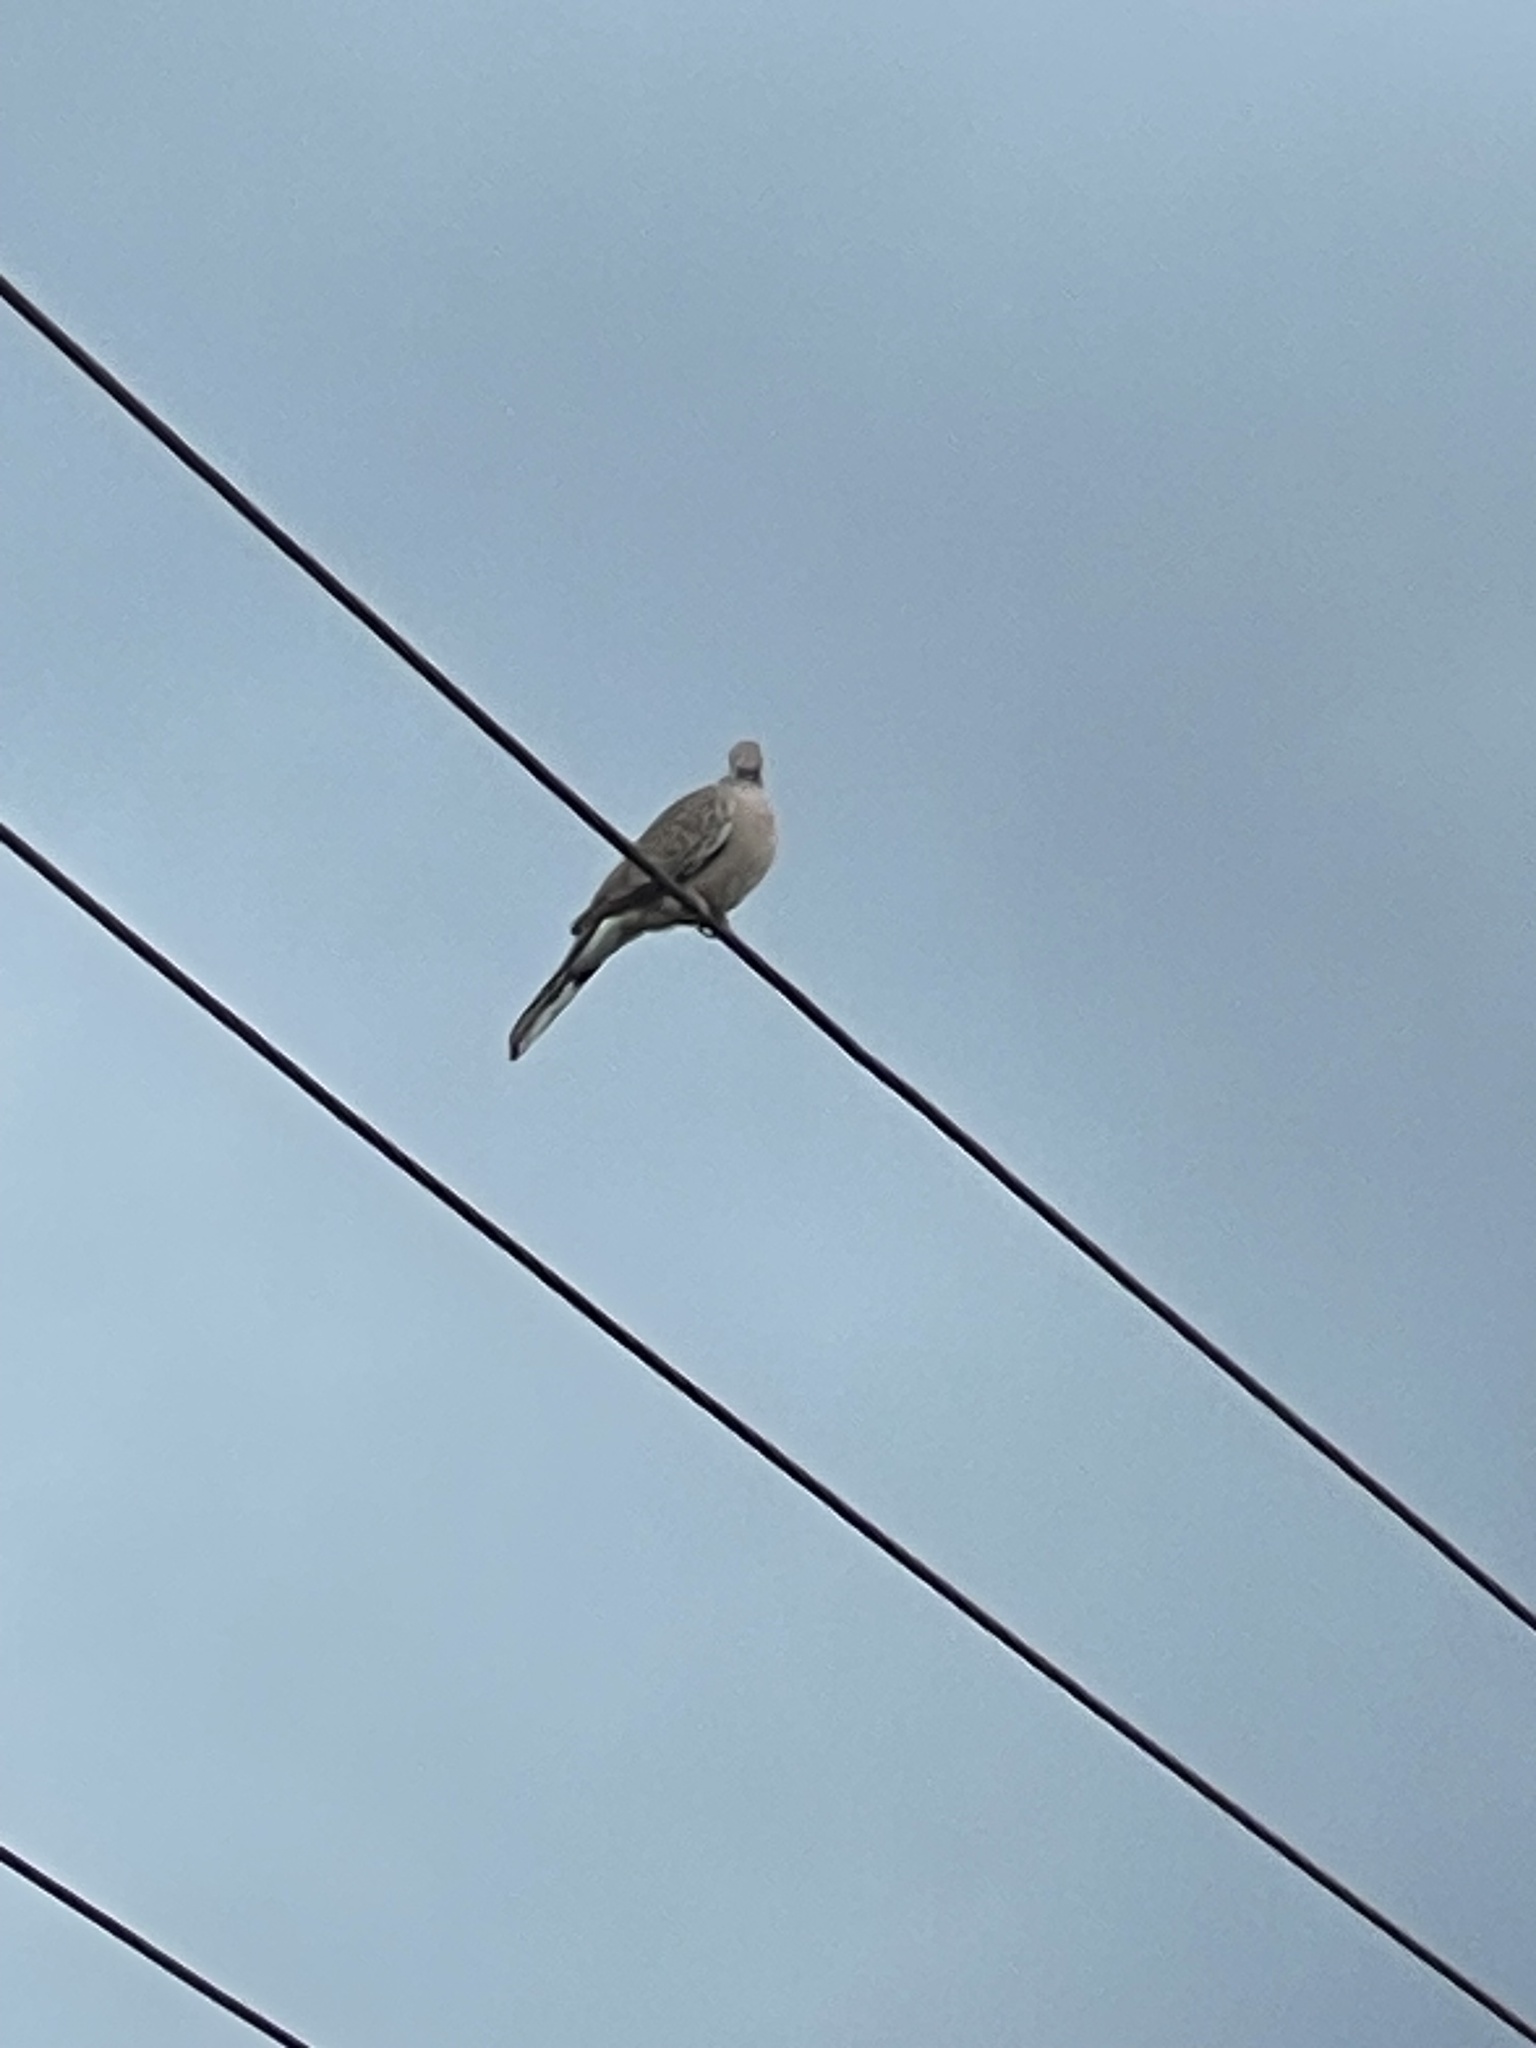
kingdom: Animalia
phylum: Chordata
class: Aves
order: Columbiformes
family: Columbidae
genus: Spilopelia
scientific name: Spilopelia chinensis
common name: Spotted dove
